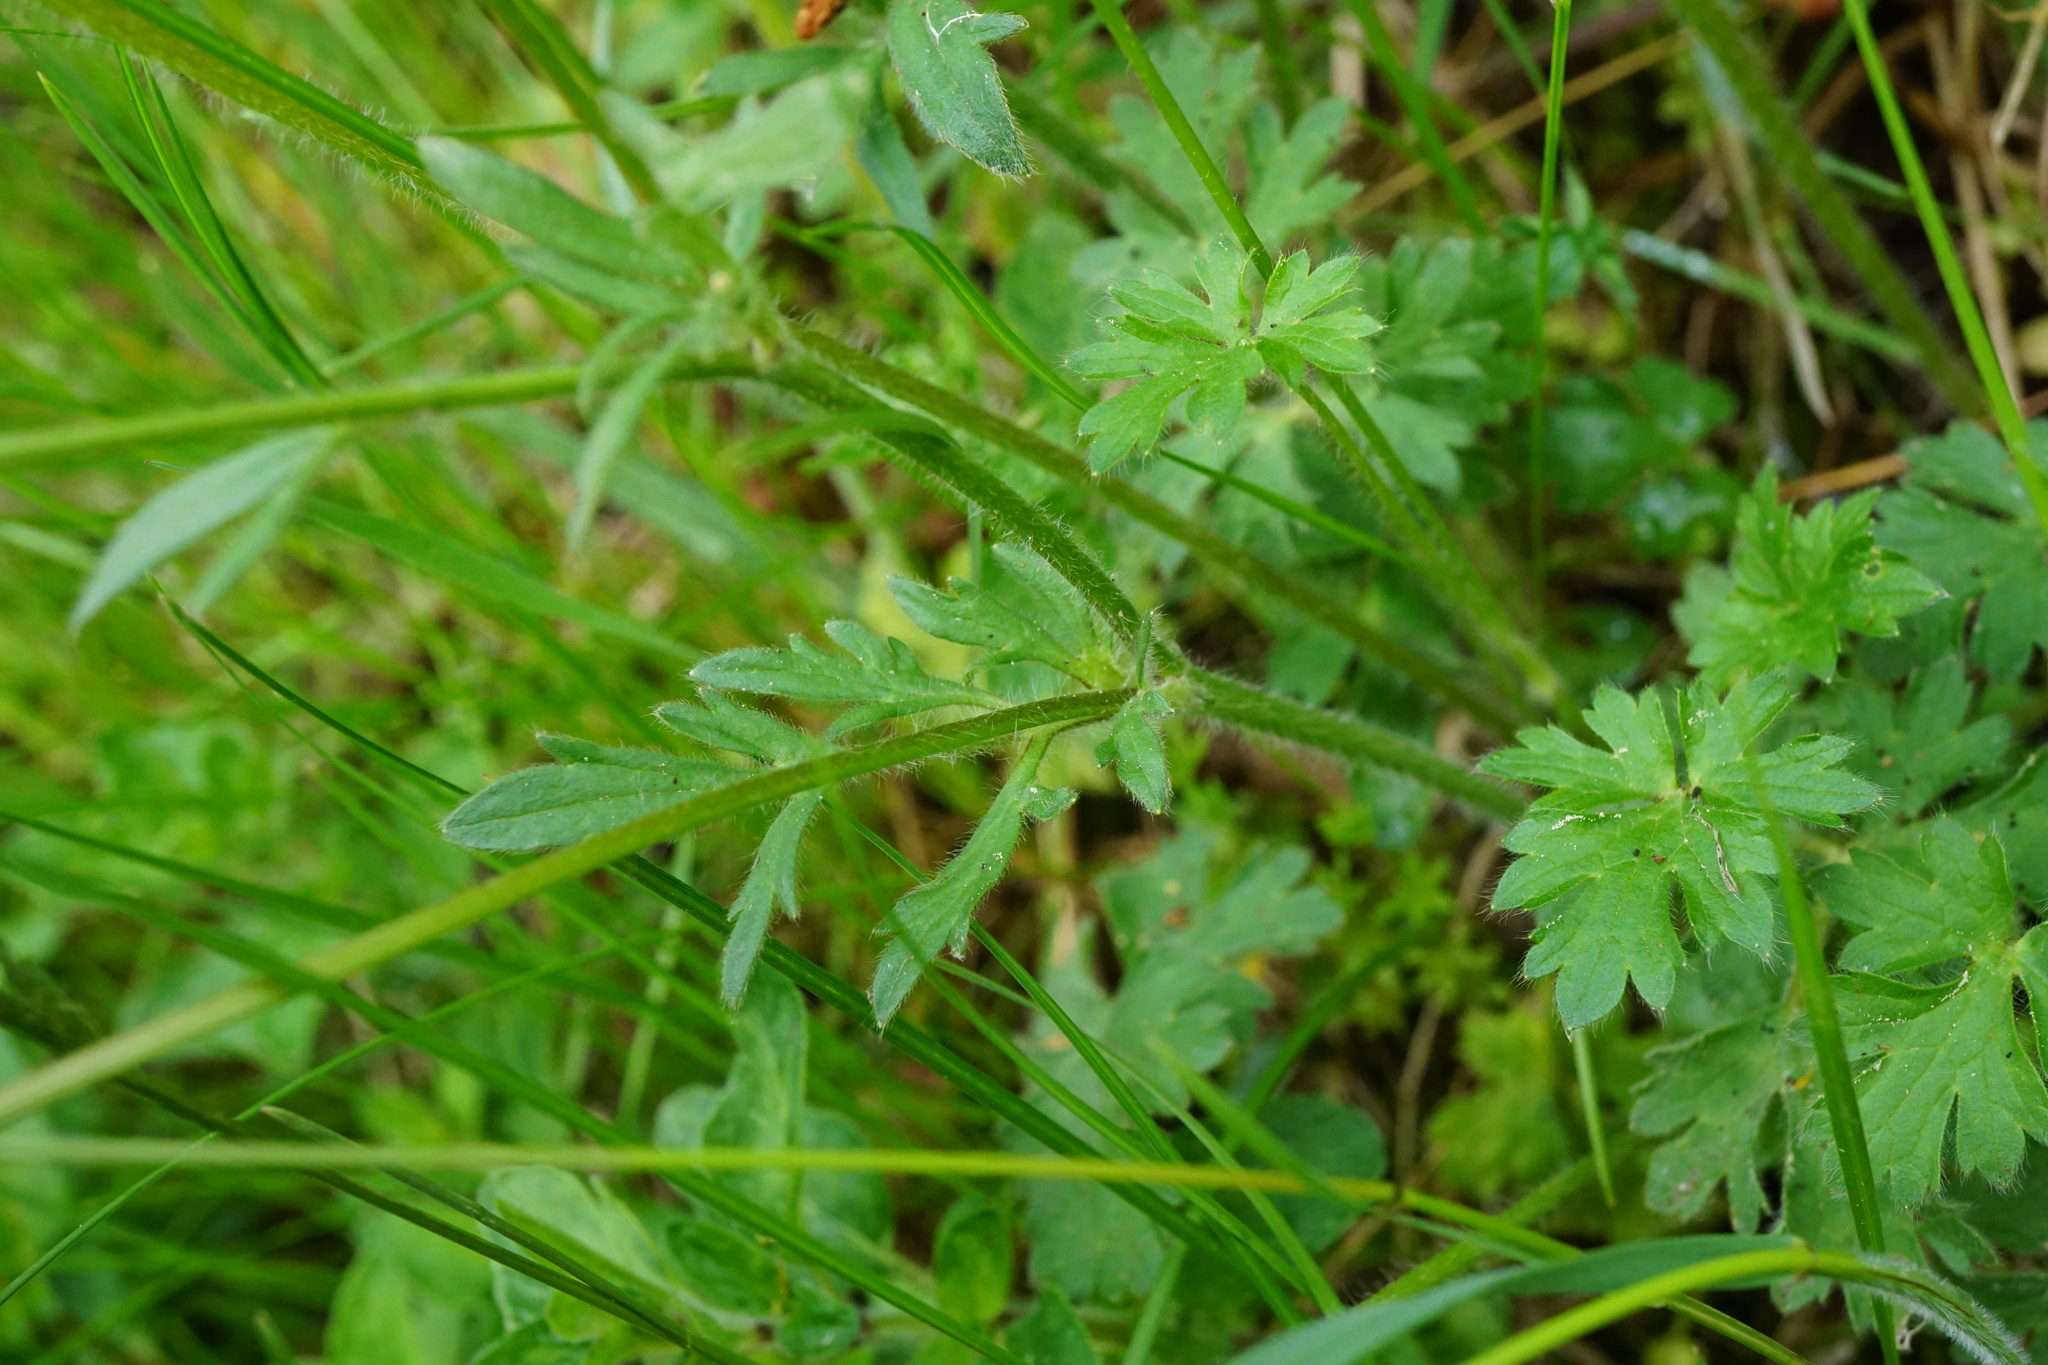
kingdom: Plantae
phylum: Tracheophyta
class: Magnoliopsida
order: Ranunculales
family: Ranunculaceae
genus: Ranunculus
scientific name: Ranunculus bulbosus
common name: Bulbous buttercup
